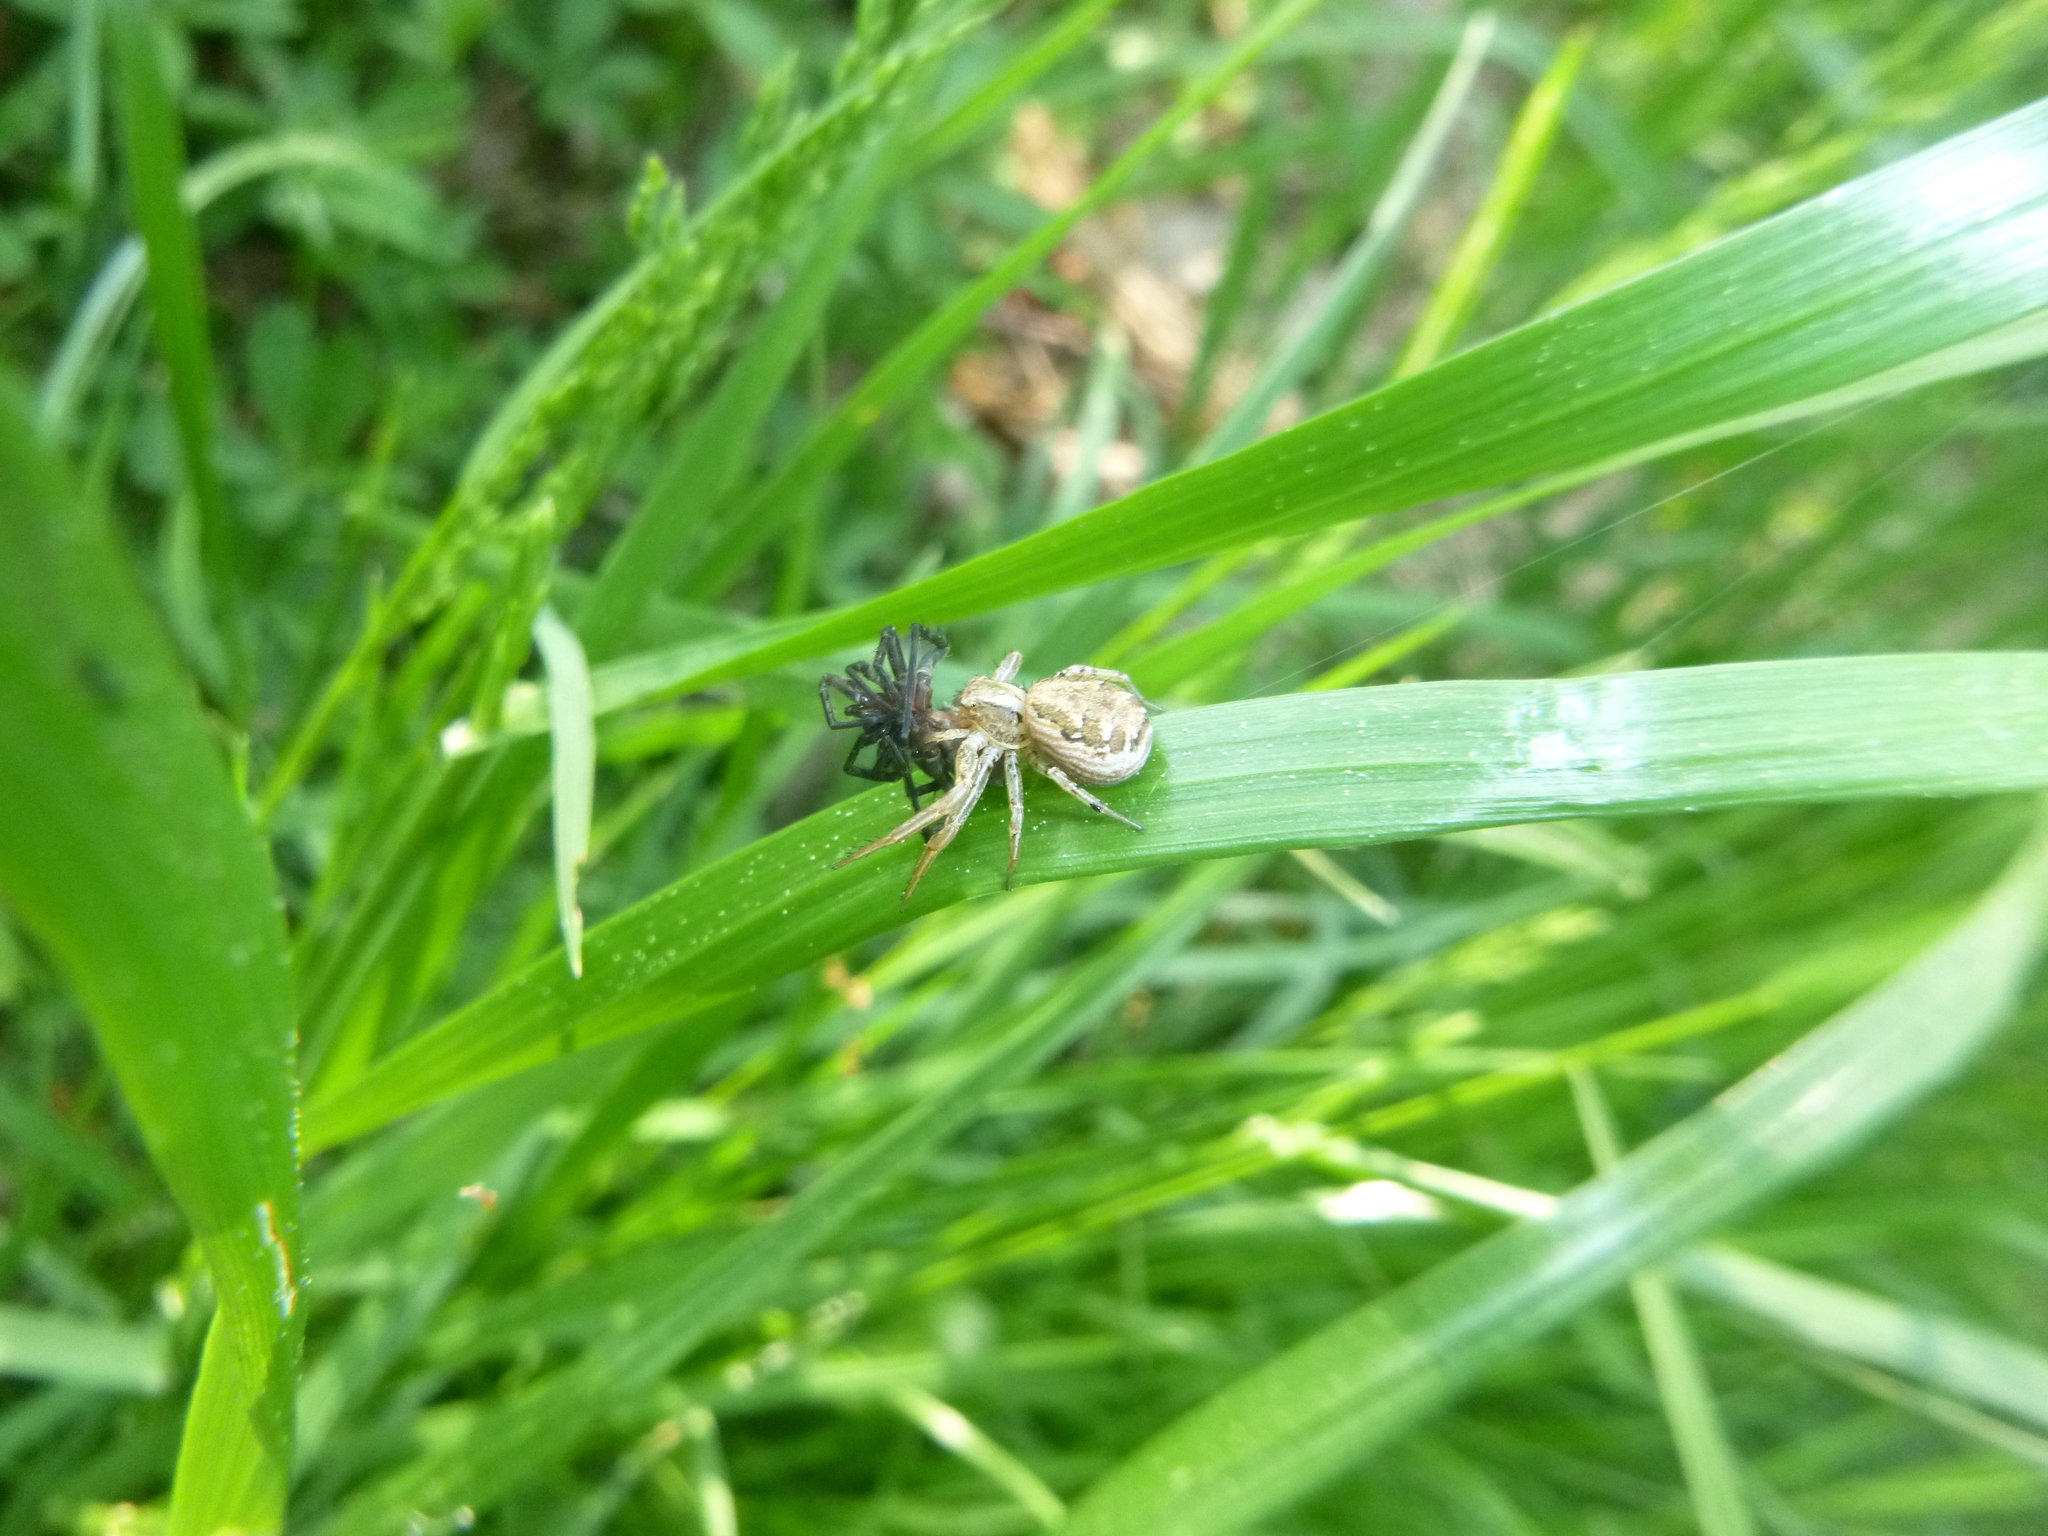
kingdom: Animalia
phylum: Arthropoda
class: Arachnida
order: Araneae
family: Thomisidae
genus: Xysticus
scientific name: Xysticus
